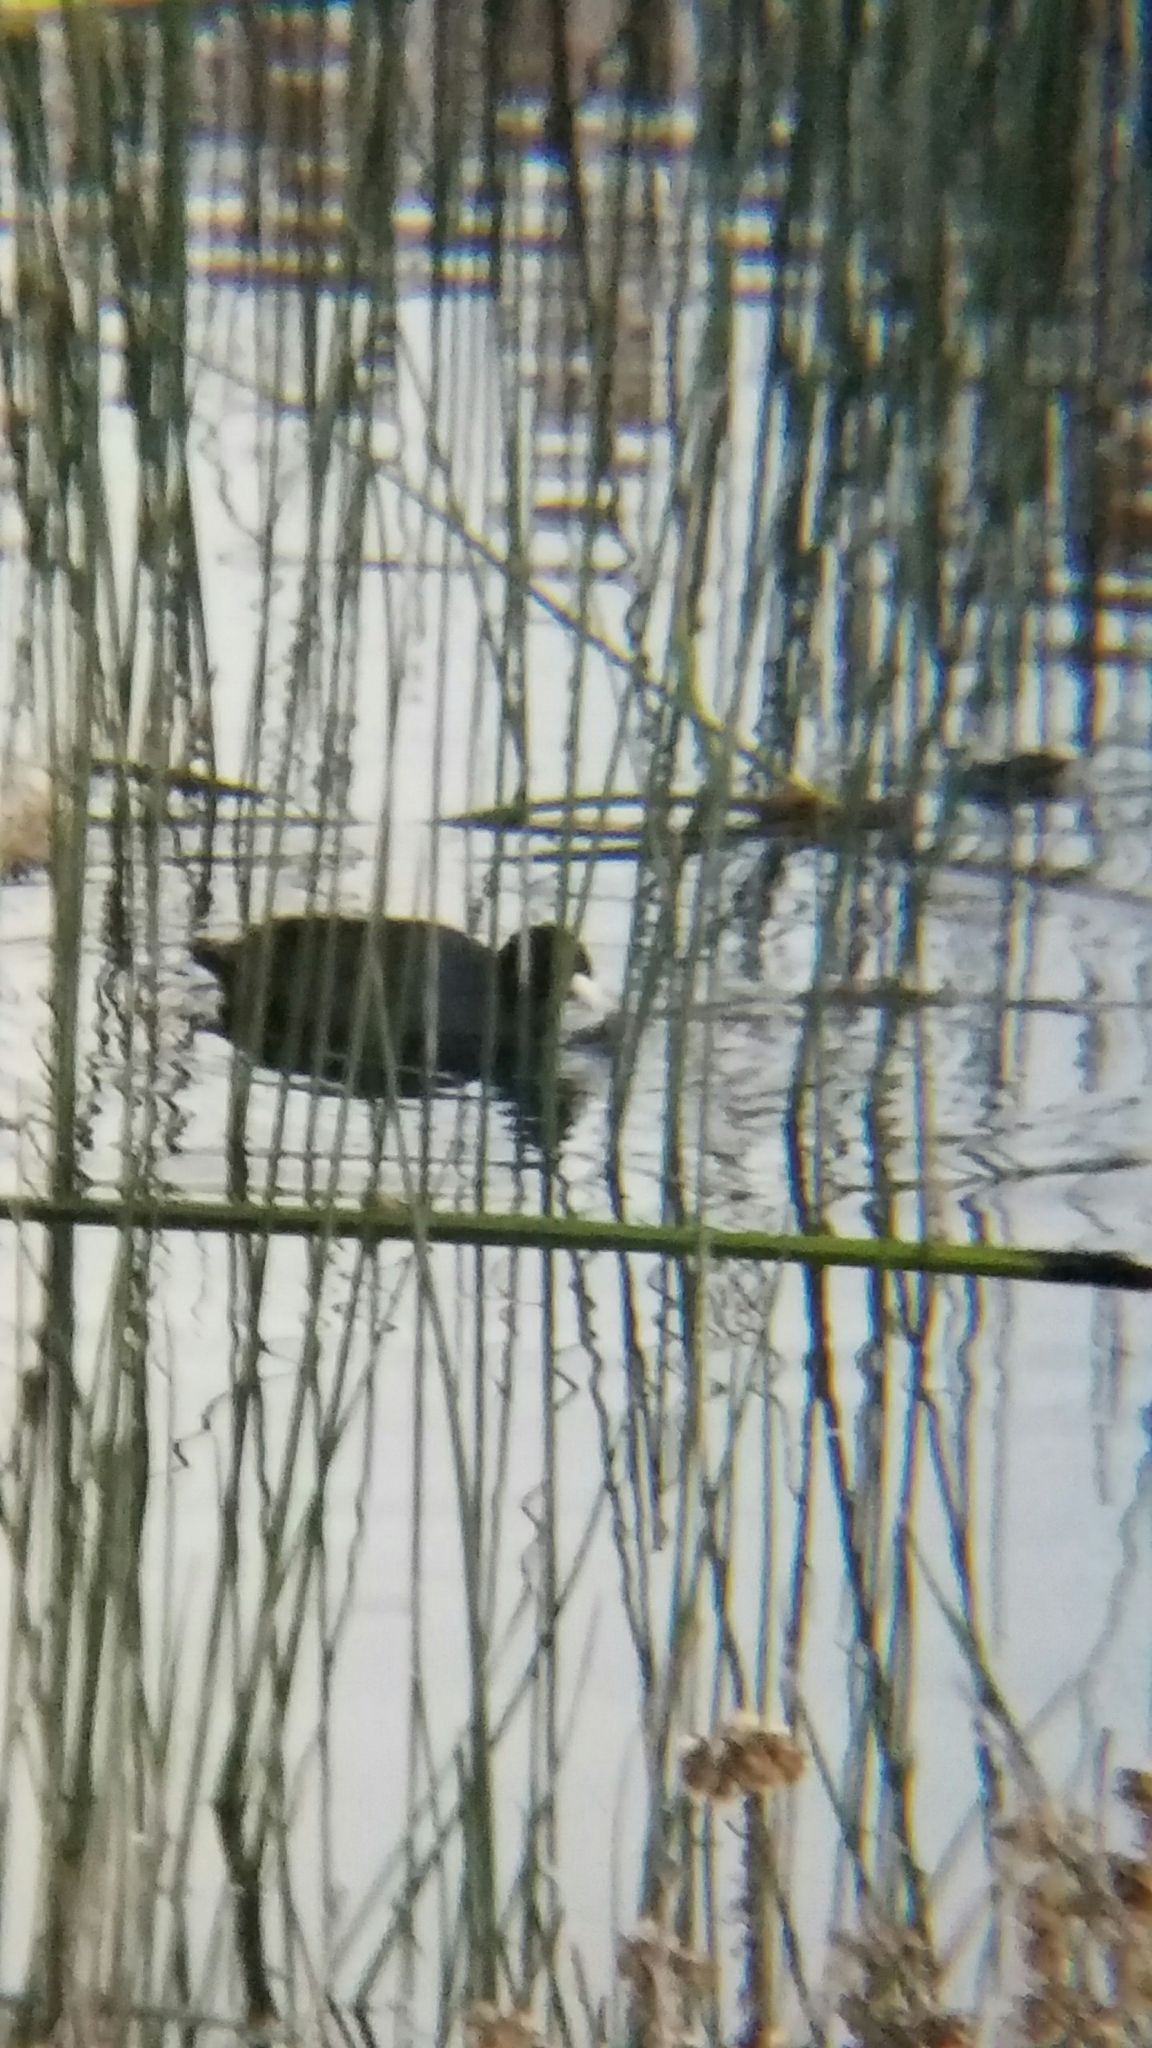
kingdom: Animalia
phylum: Chordata
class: Aves
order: Gruiformes
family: Rallidae
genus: Fulica
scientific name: Fulica americana
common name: American coot
